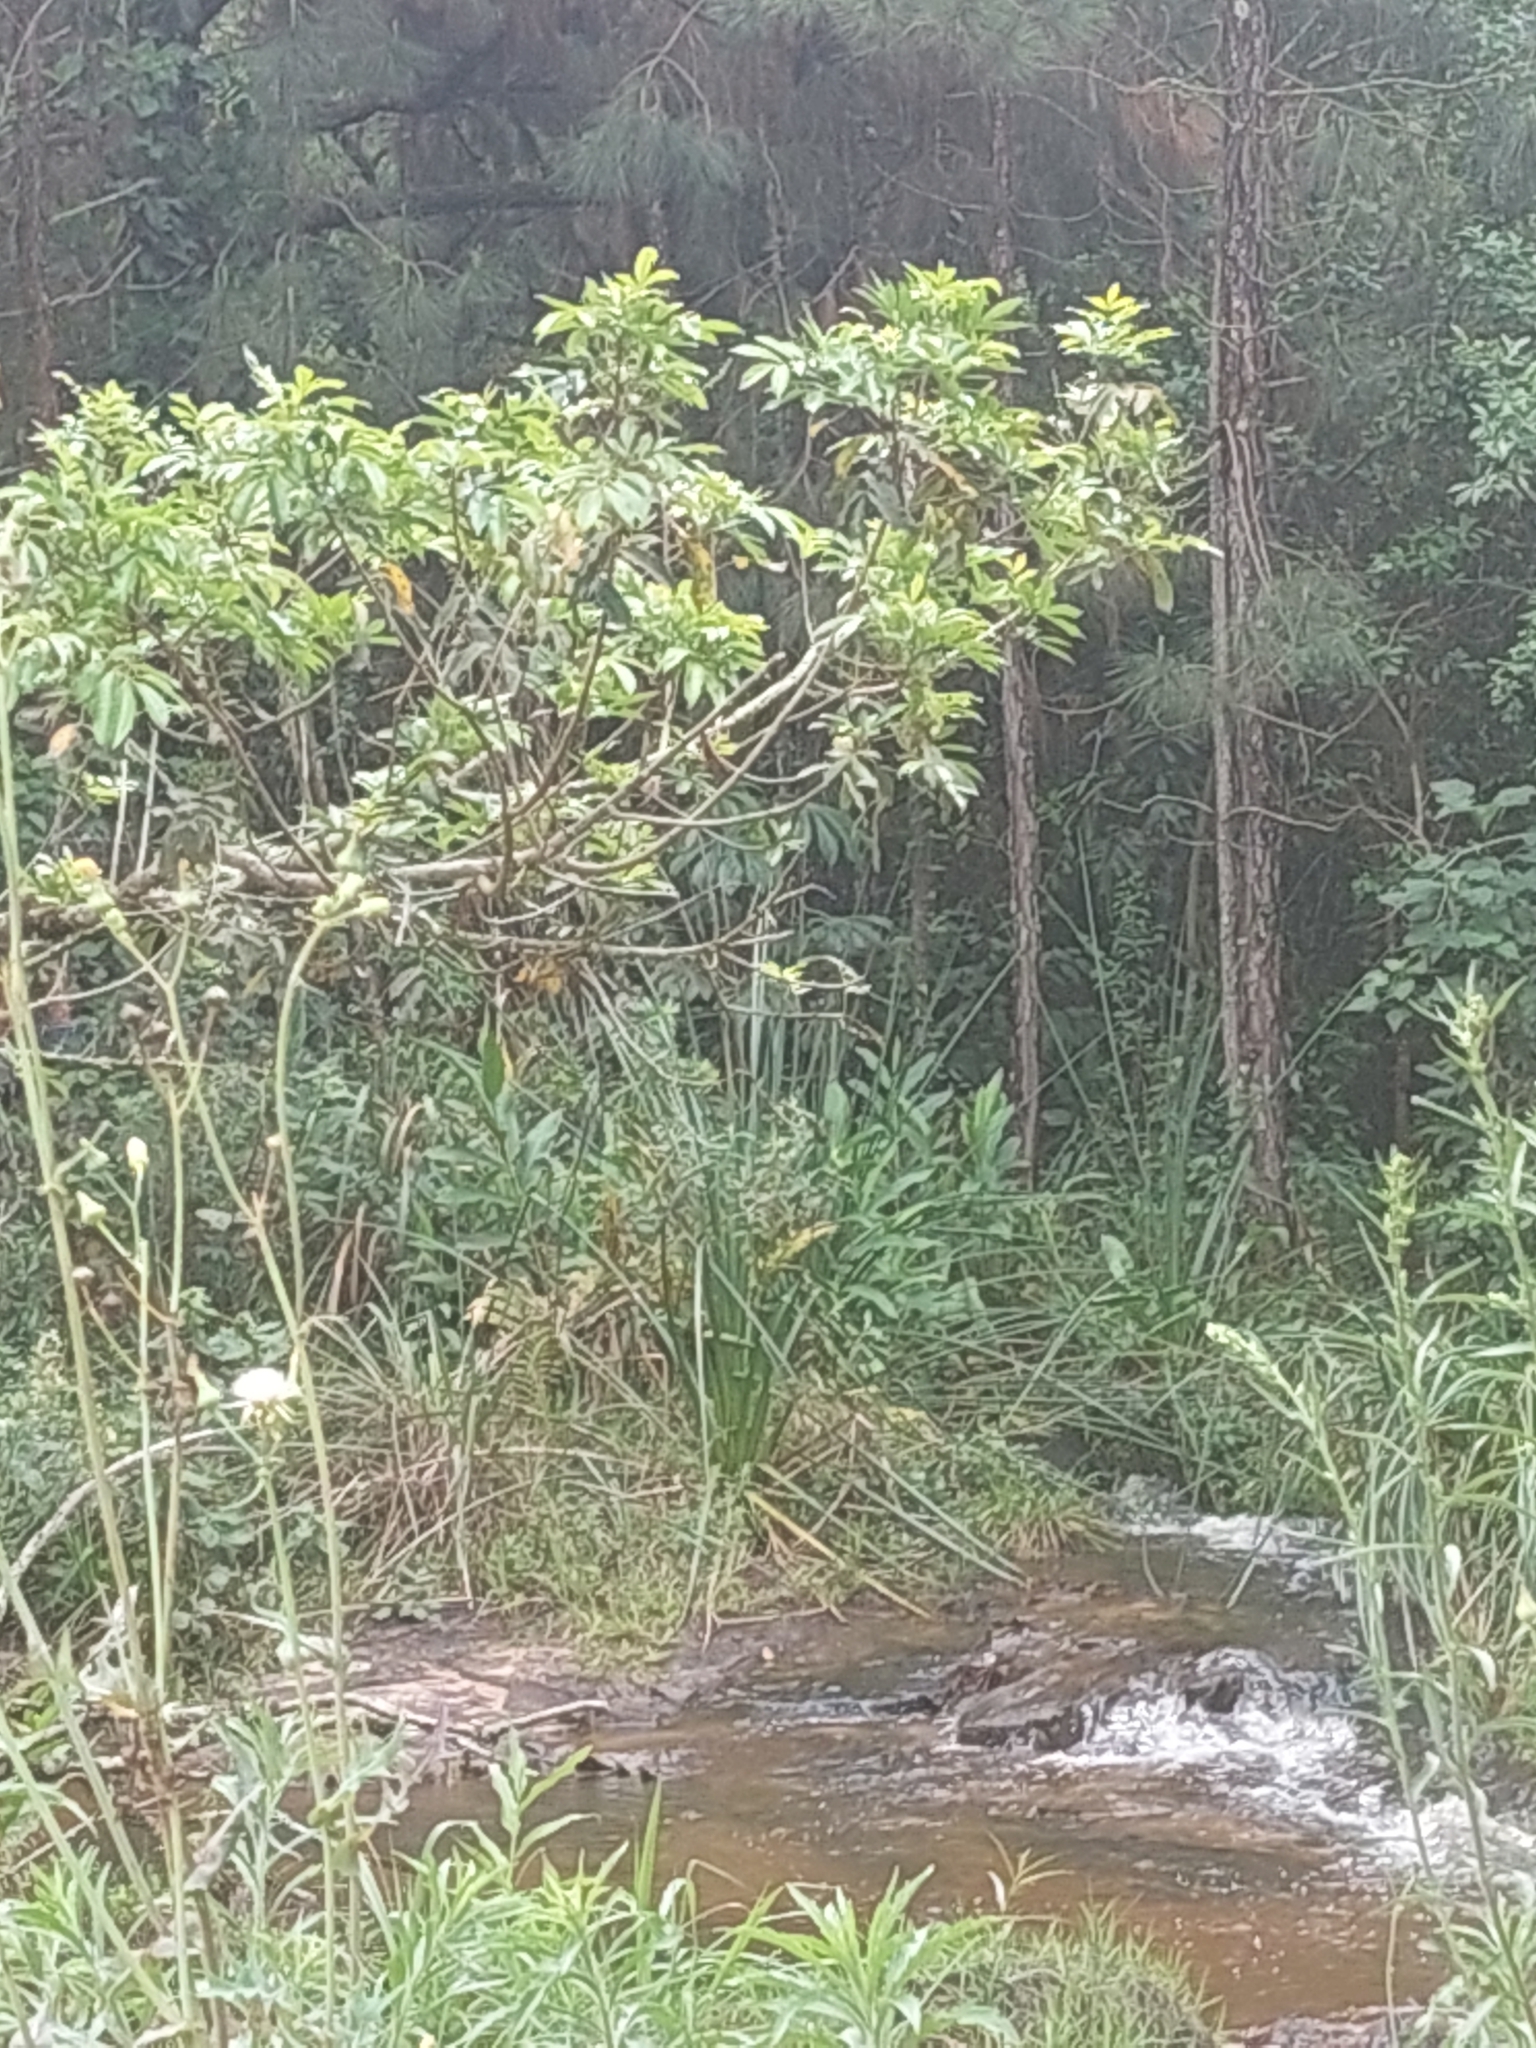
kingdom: Plantae
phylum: Tracheophyta
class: Liliopsida
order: Zingiberales
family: Zingiberaceae
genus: Hedychium
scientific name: Hedychium coronarium
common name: White garland-lily
